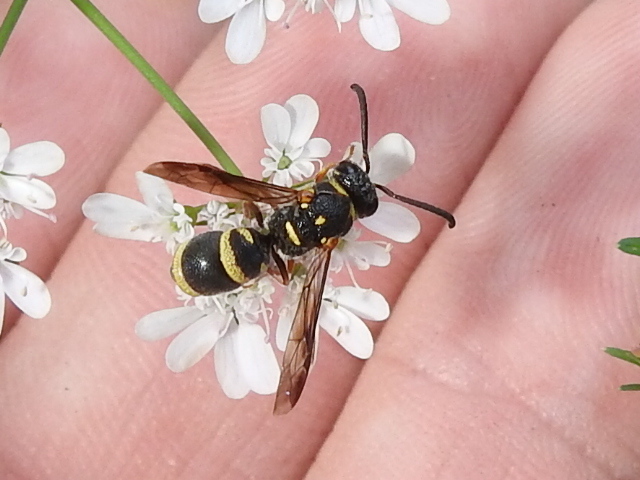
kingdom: Animalia
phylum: Arthropoda
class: Insecta
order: Hymenoptera
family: Eumenidae
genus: Parancistrocerus
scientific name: Parancistrocerus fulvipes
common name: Potter wasp
